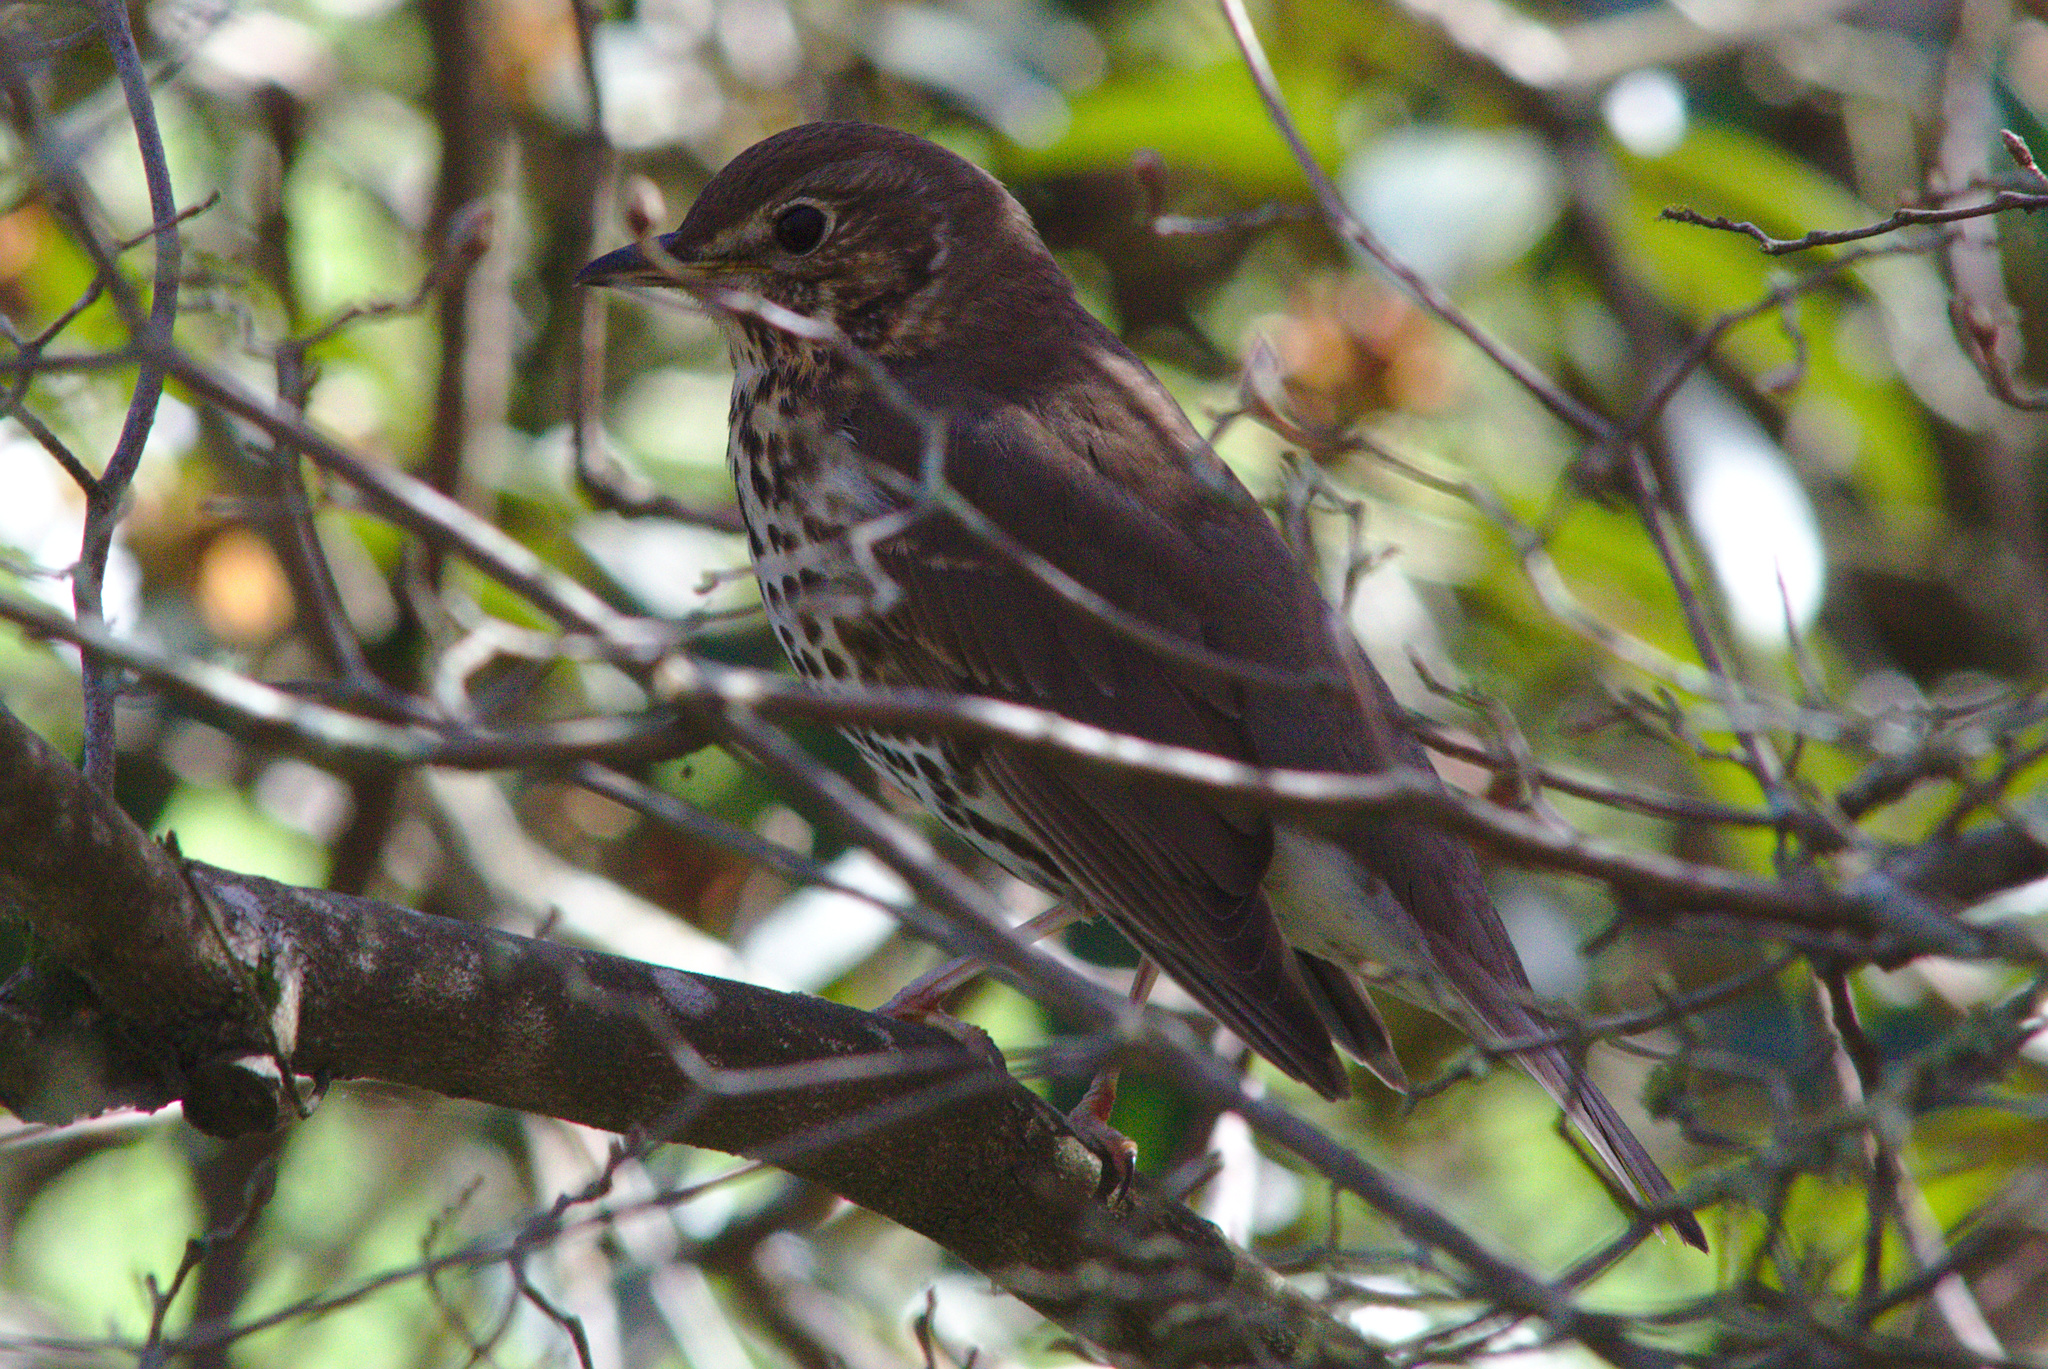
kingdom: Animalia
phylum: Chordata
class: Aves
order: Passeriformes
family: Turdidae
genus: Turdus
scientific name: Turdus philomelos
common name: Song thrush
